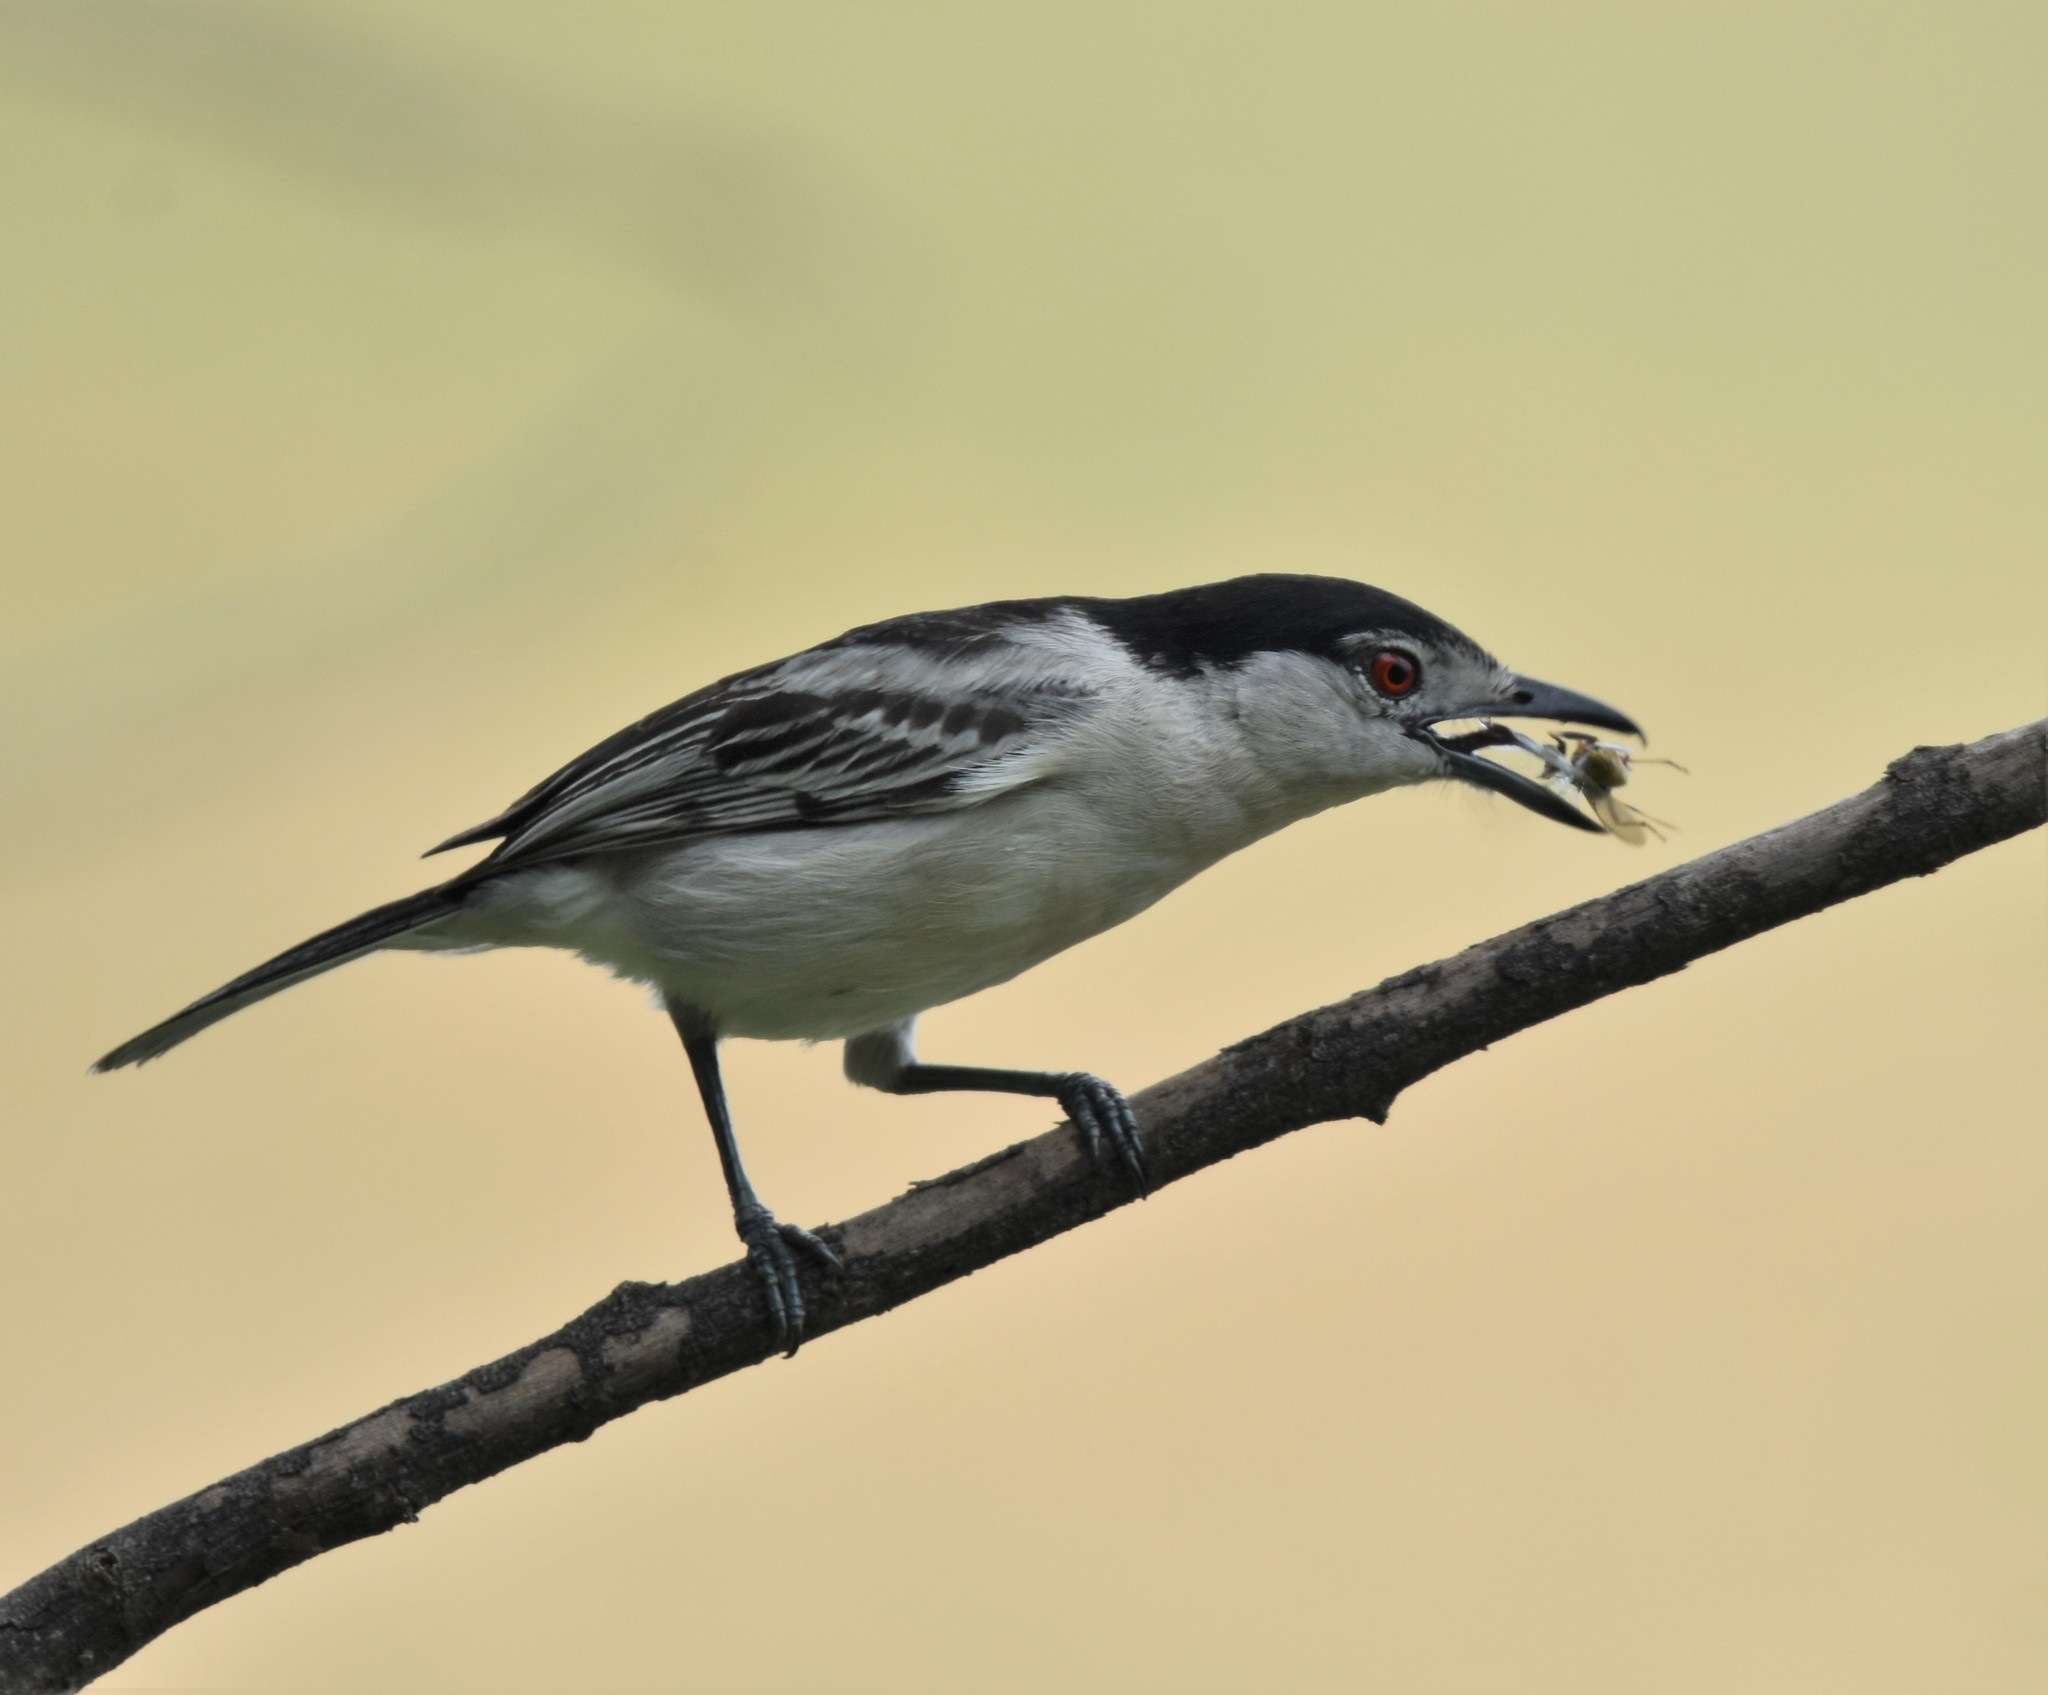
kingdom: Animalia
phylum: Chordata
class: Aves
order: Passeriformes
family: Malaconotidae
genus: Dryoscopus
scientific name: Dryoscopus cubla
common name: Black-backed puffback
